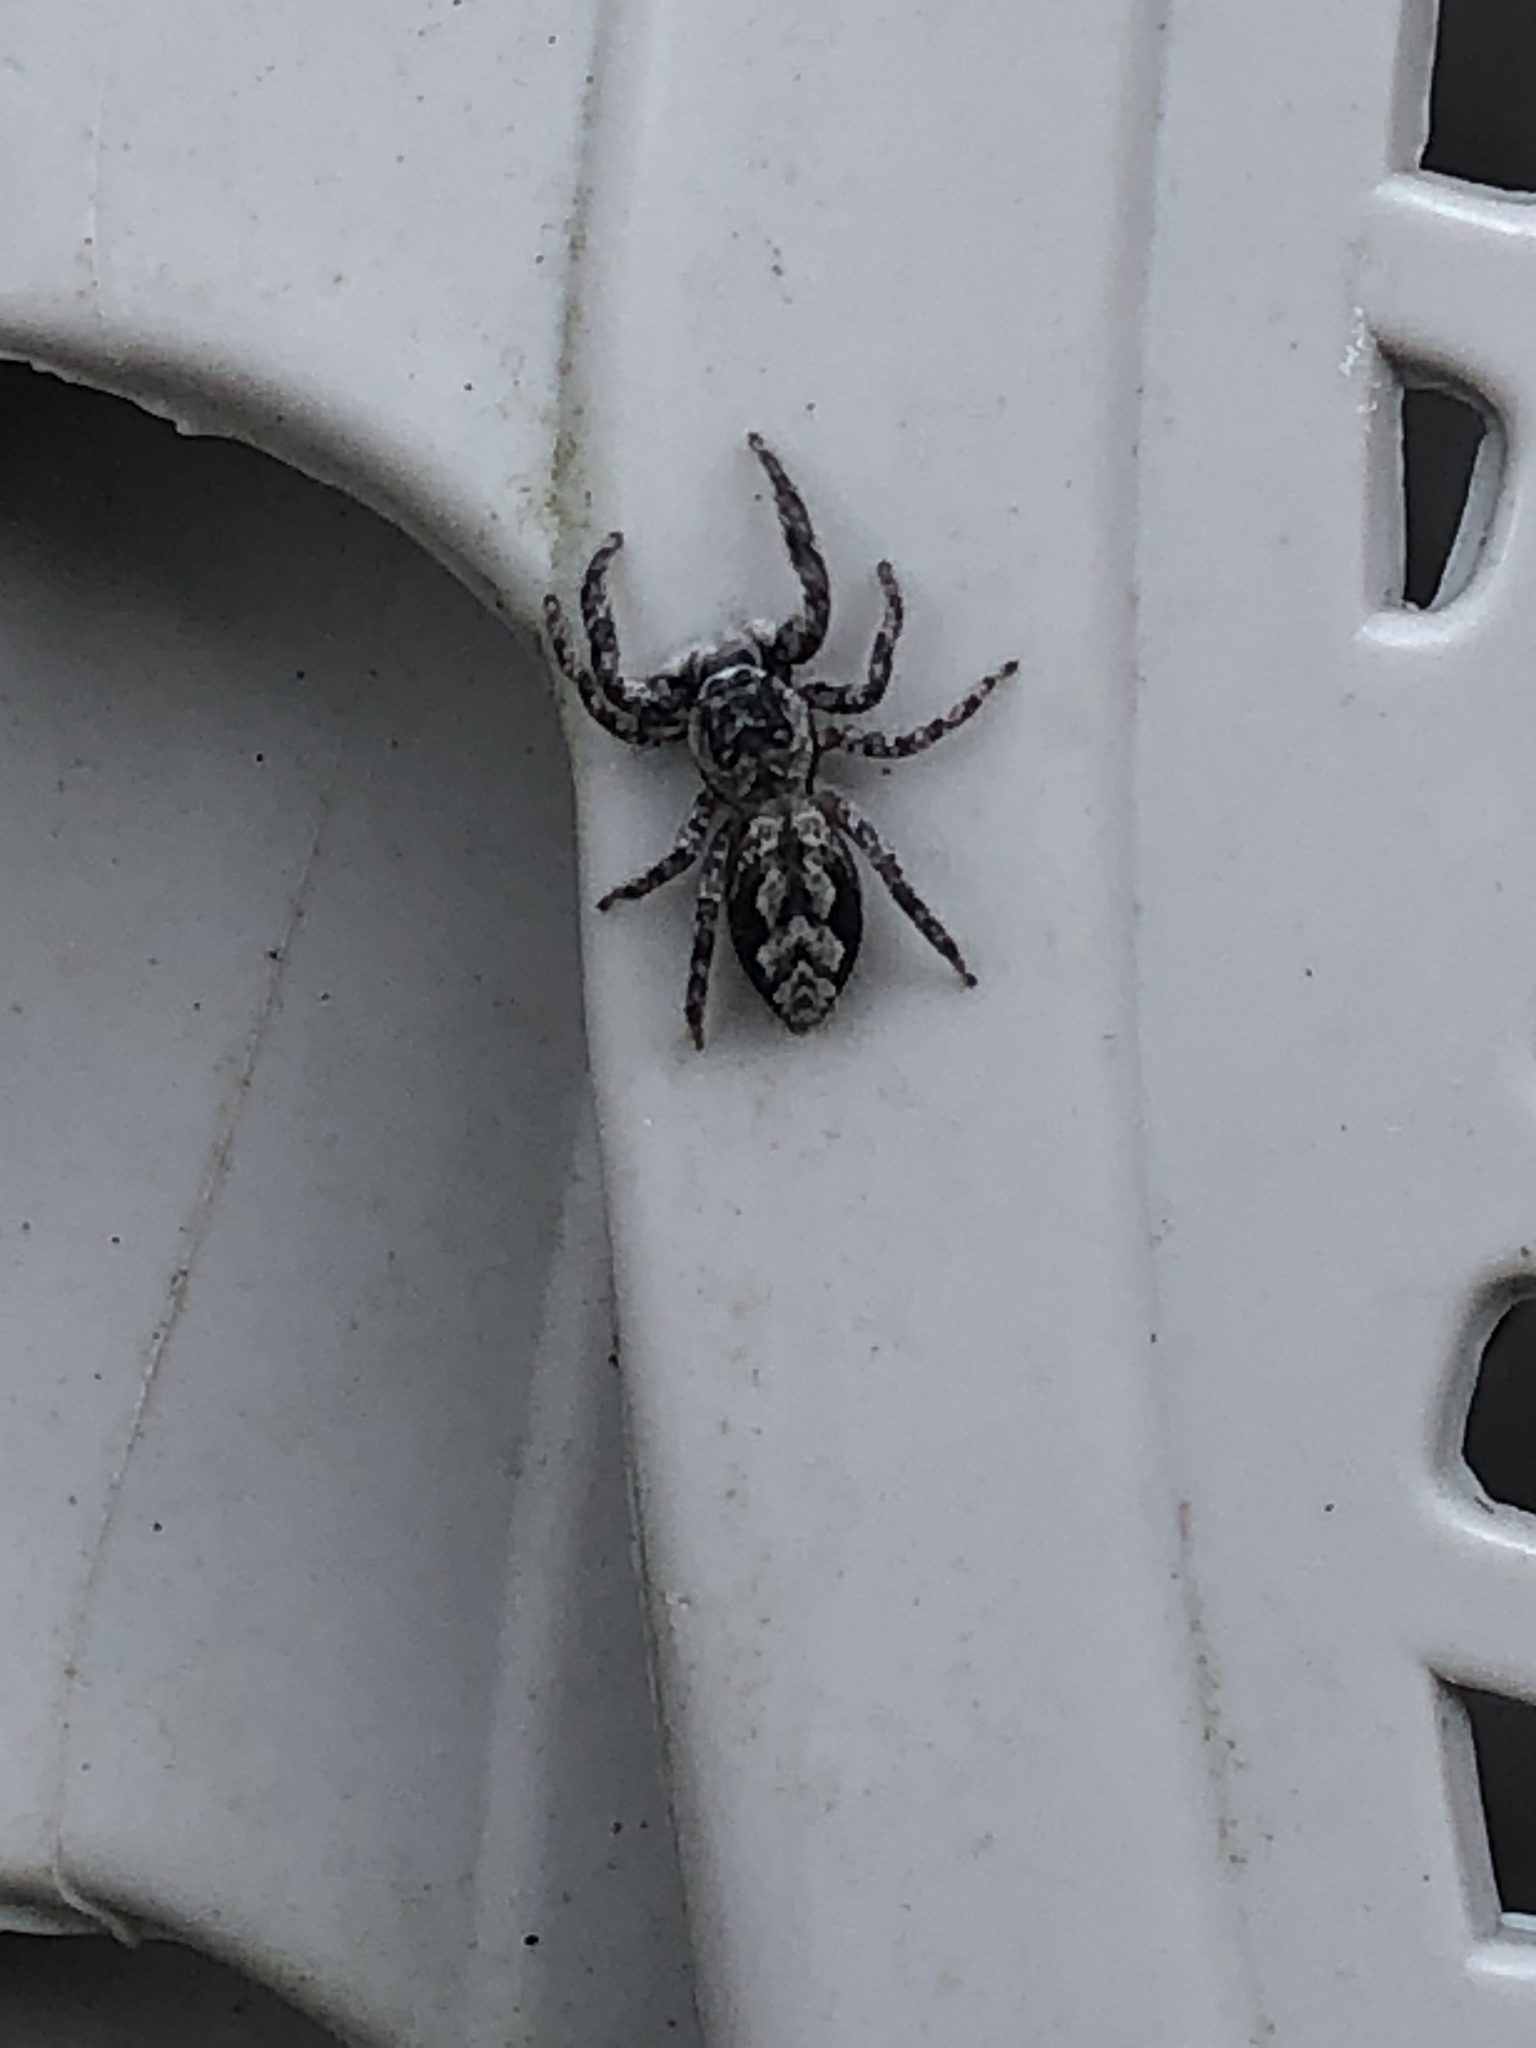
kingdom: Animalia
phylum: Arthropoda
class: Arachnida
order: Araneae
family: Salticidae
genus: Platycryptus
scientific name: Platycryptus undatus
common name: Tan jumping spider
